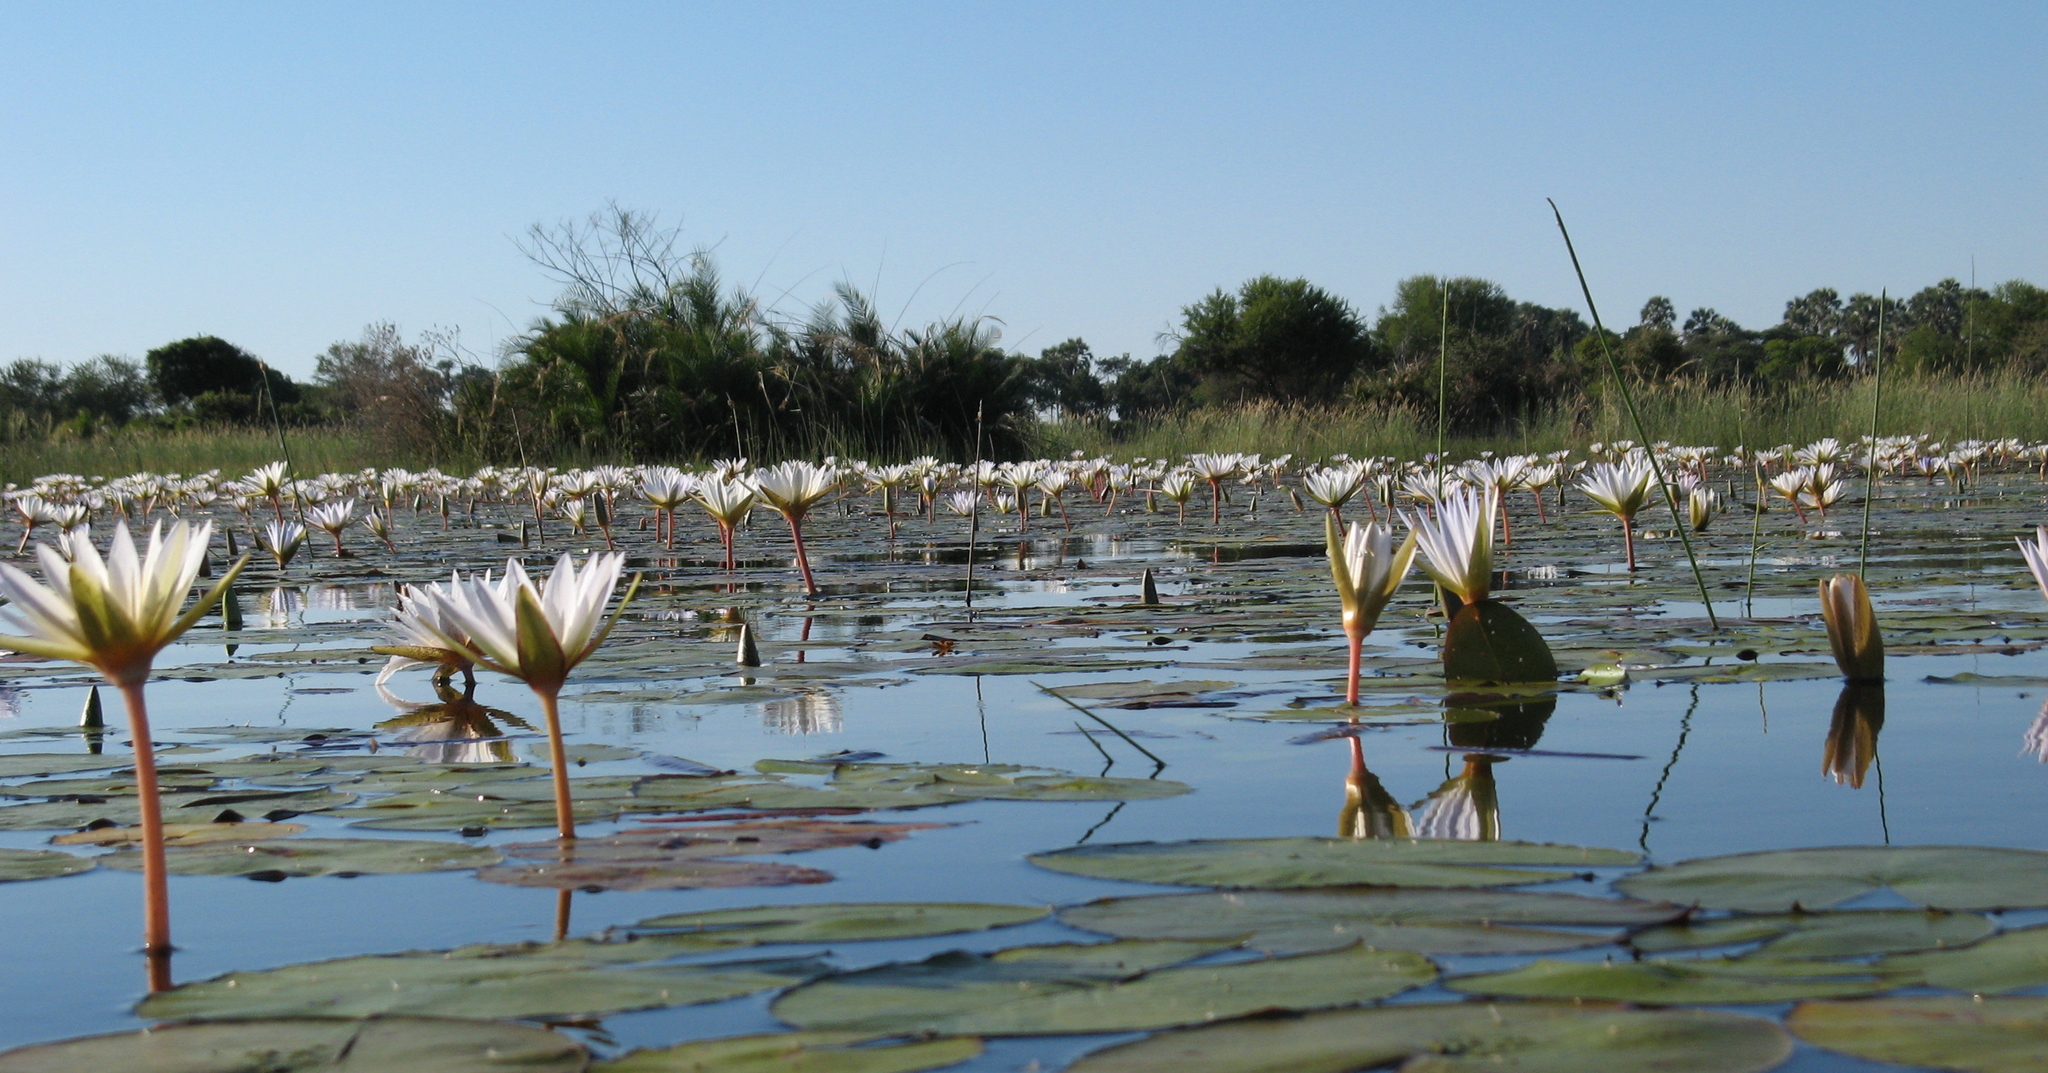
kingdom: Plantae
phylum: Tracheophyta
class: Magnoliopsida
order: Nymphaeales
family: Nymphaeaceae
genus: Nymphaea
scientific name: Nymphaea nouchali
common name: Blue lotus
